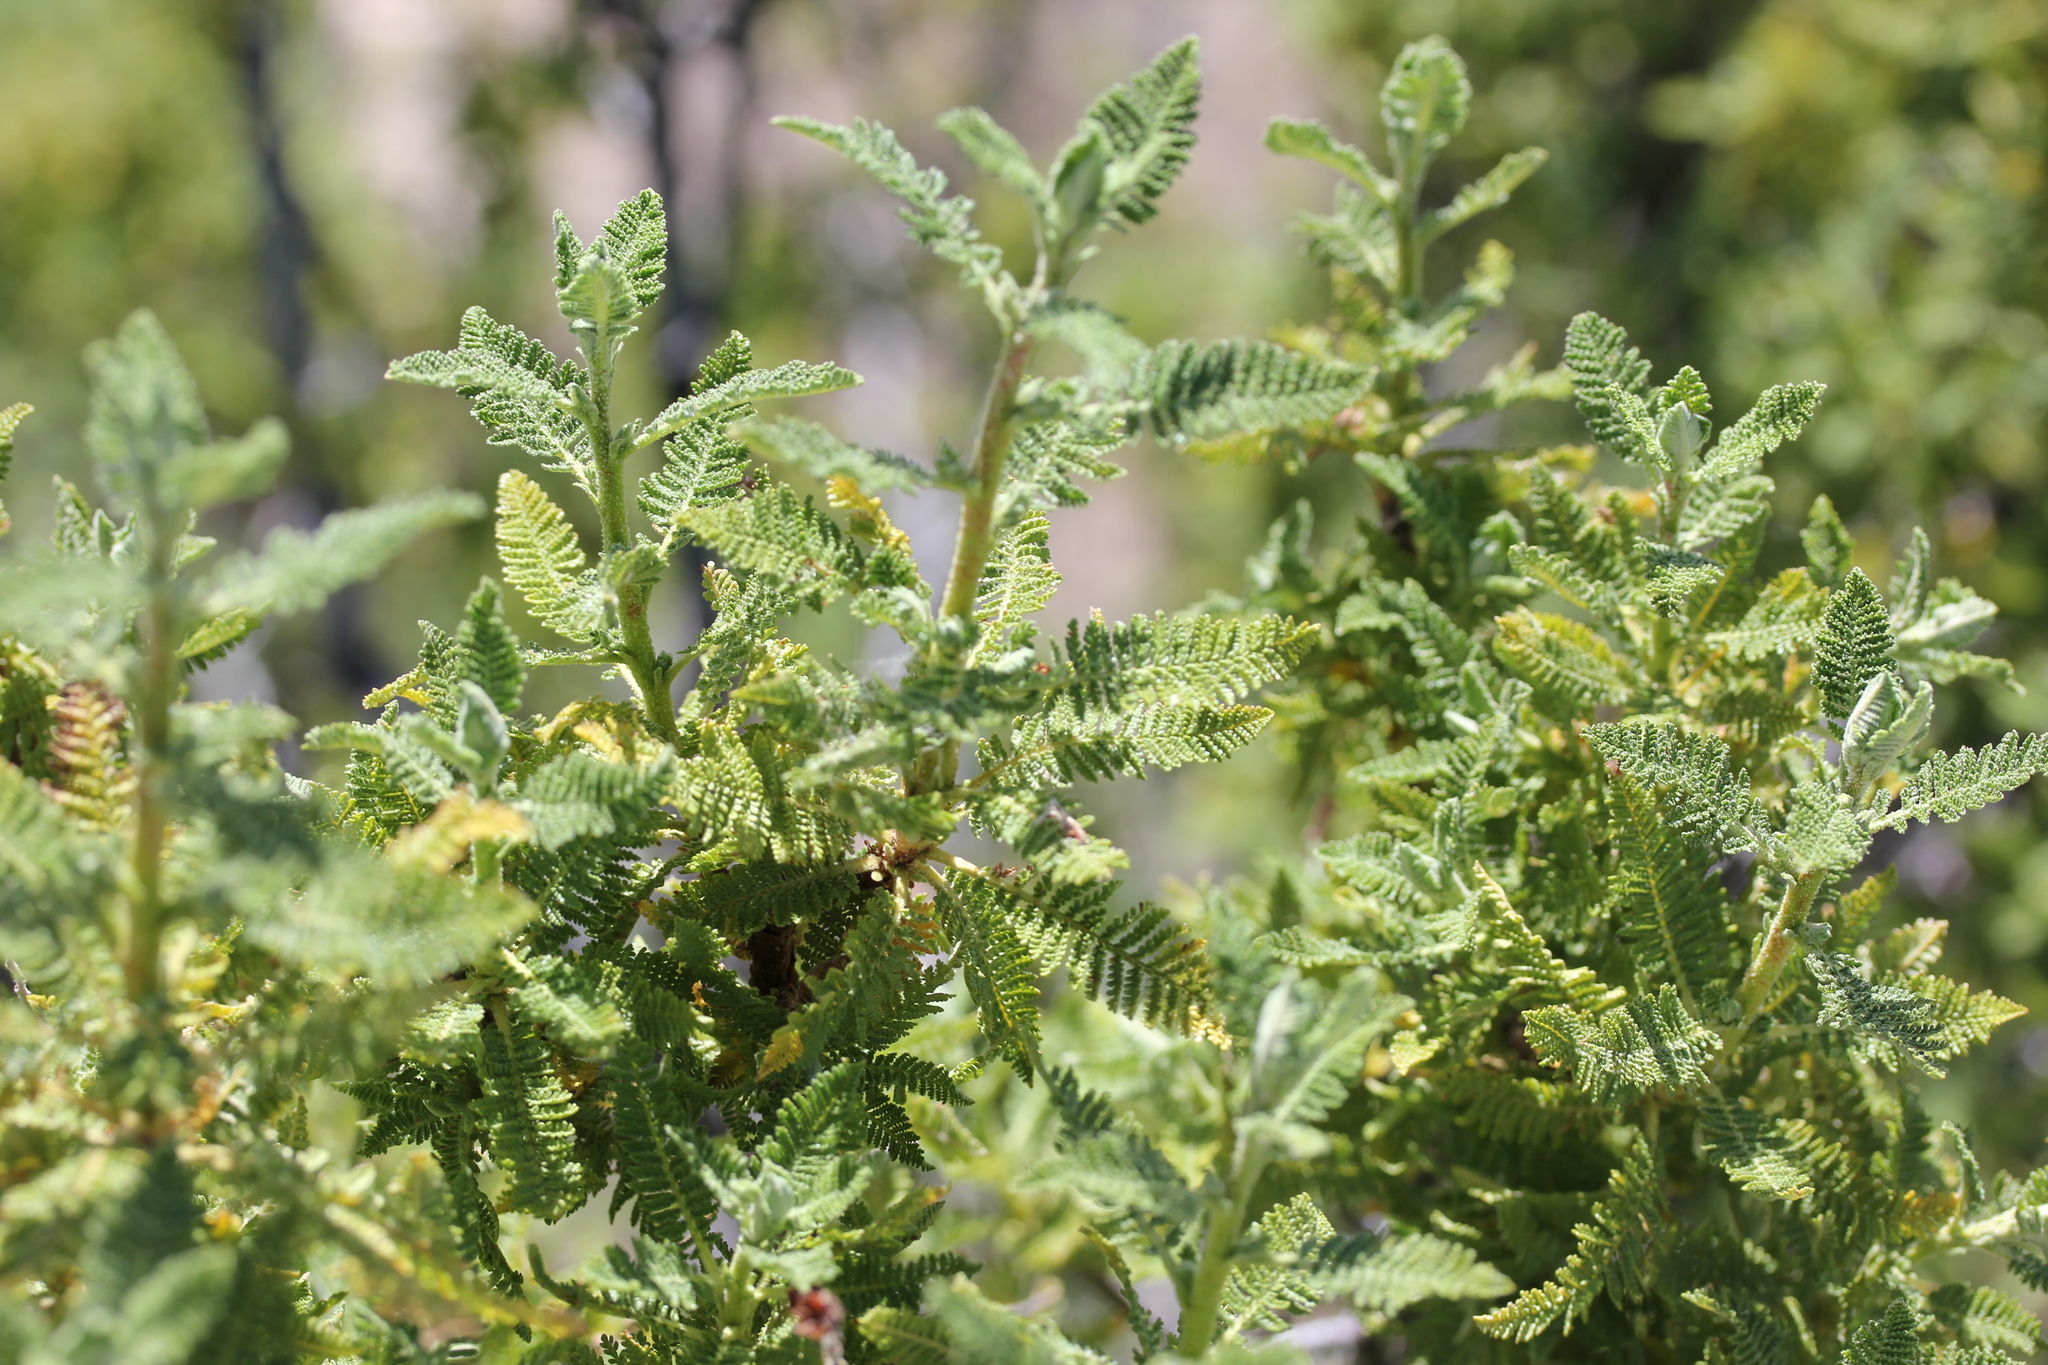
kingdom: Plantae
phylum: Tracheophyta
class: Magnoliopsida
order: Rosales
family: Rosaceae
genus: Chamaebatiaria
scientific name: Chamaebatiaria millefolium
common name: Fernbush
